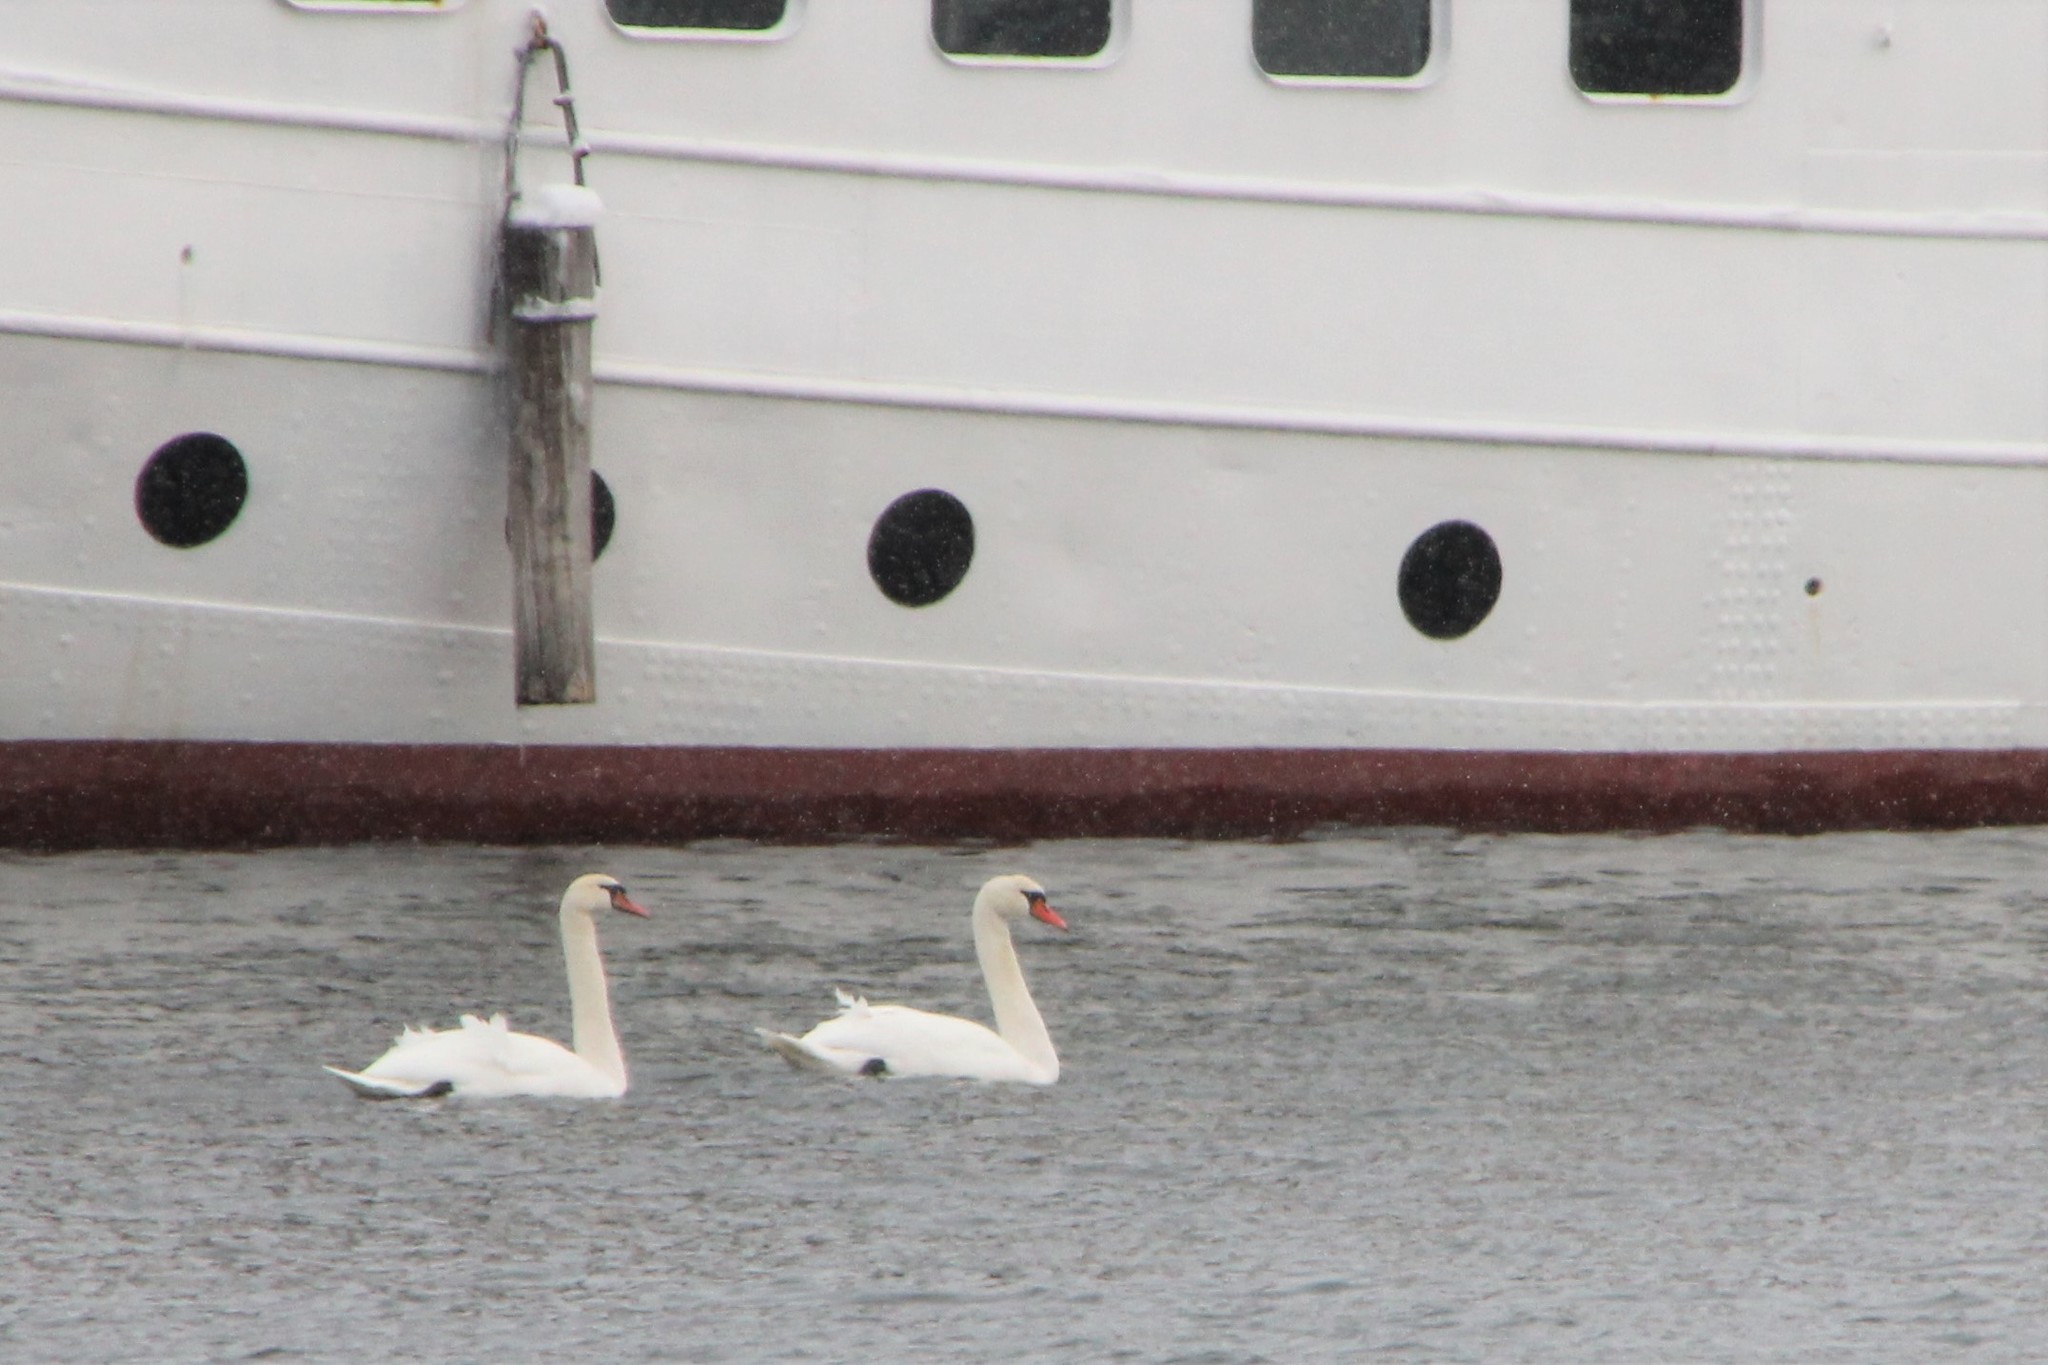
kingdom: Animalia
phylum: Chordata
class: Aves
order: Anseriformes
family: Anatidae
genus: Cygnus
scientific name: Cygnus olor
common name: Mute swan
